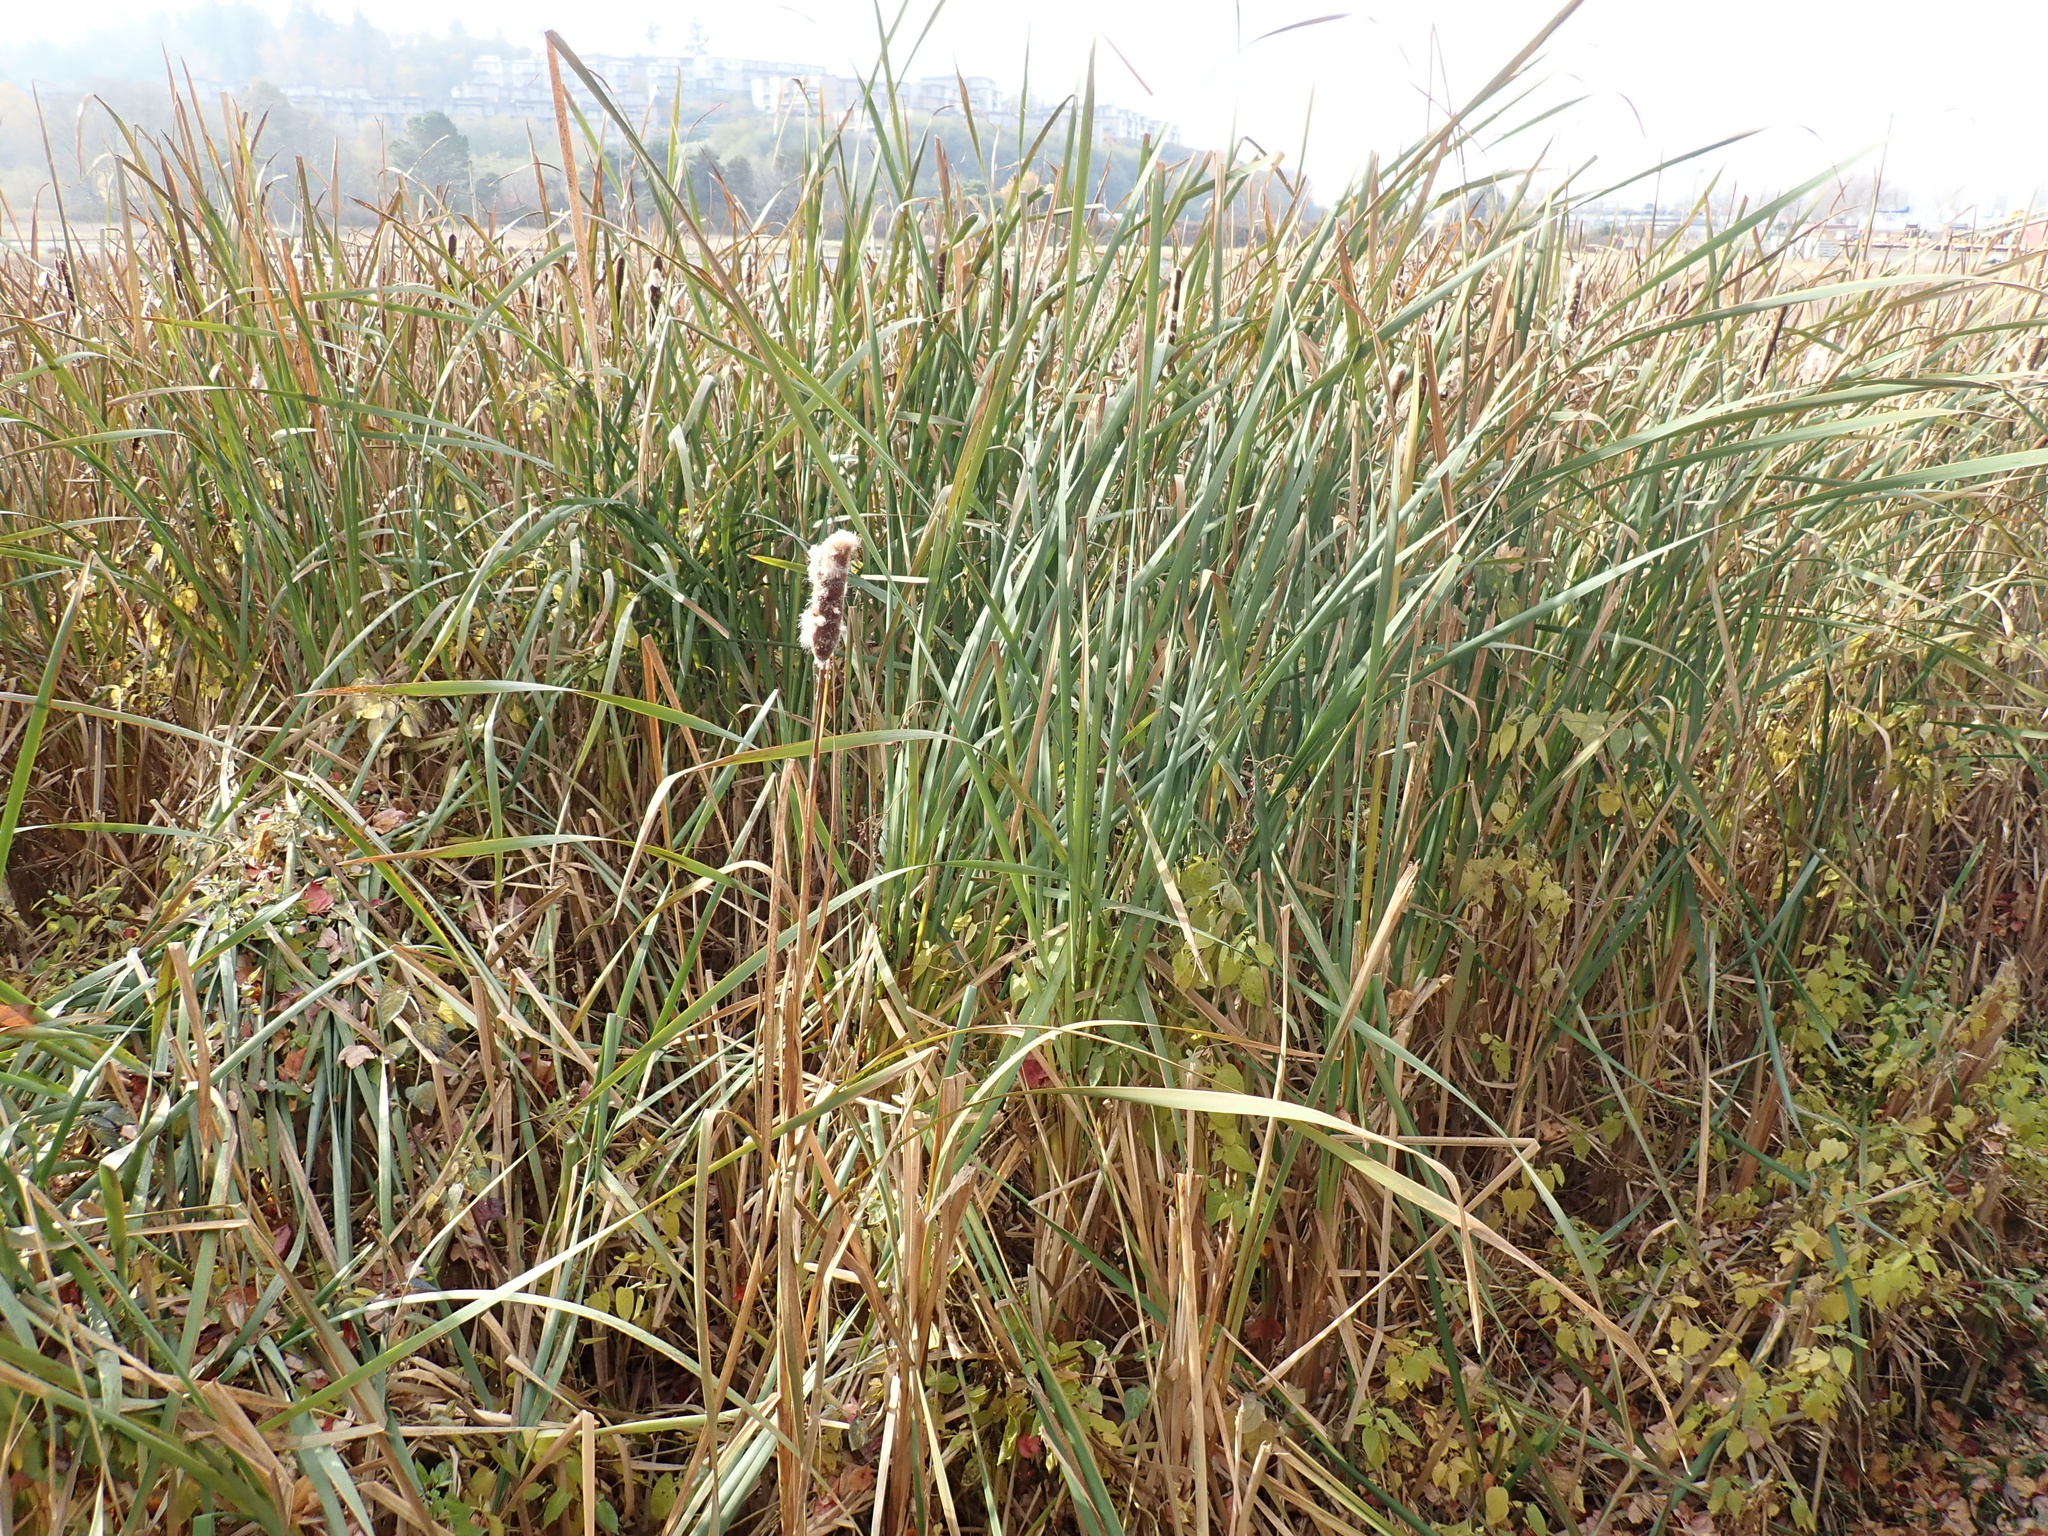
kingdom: Plantae
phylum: Tracheophyta
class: Liliopsida
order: Poales
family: Typhaceae
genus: Typha
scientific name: Typha latifolia
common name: Broadleaf cattail
